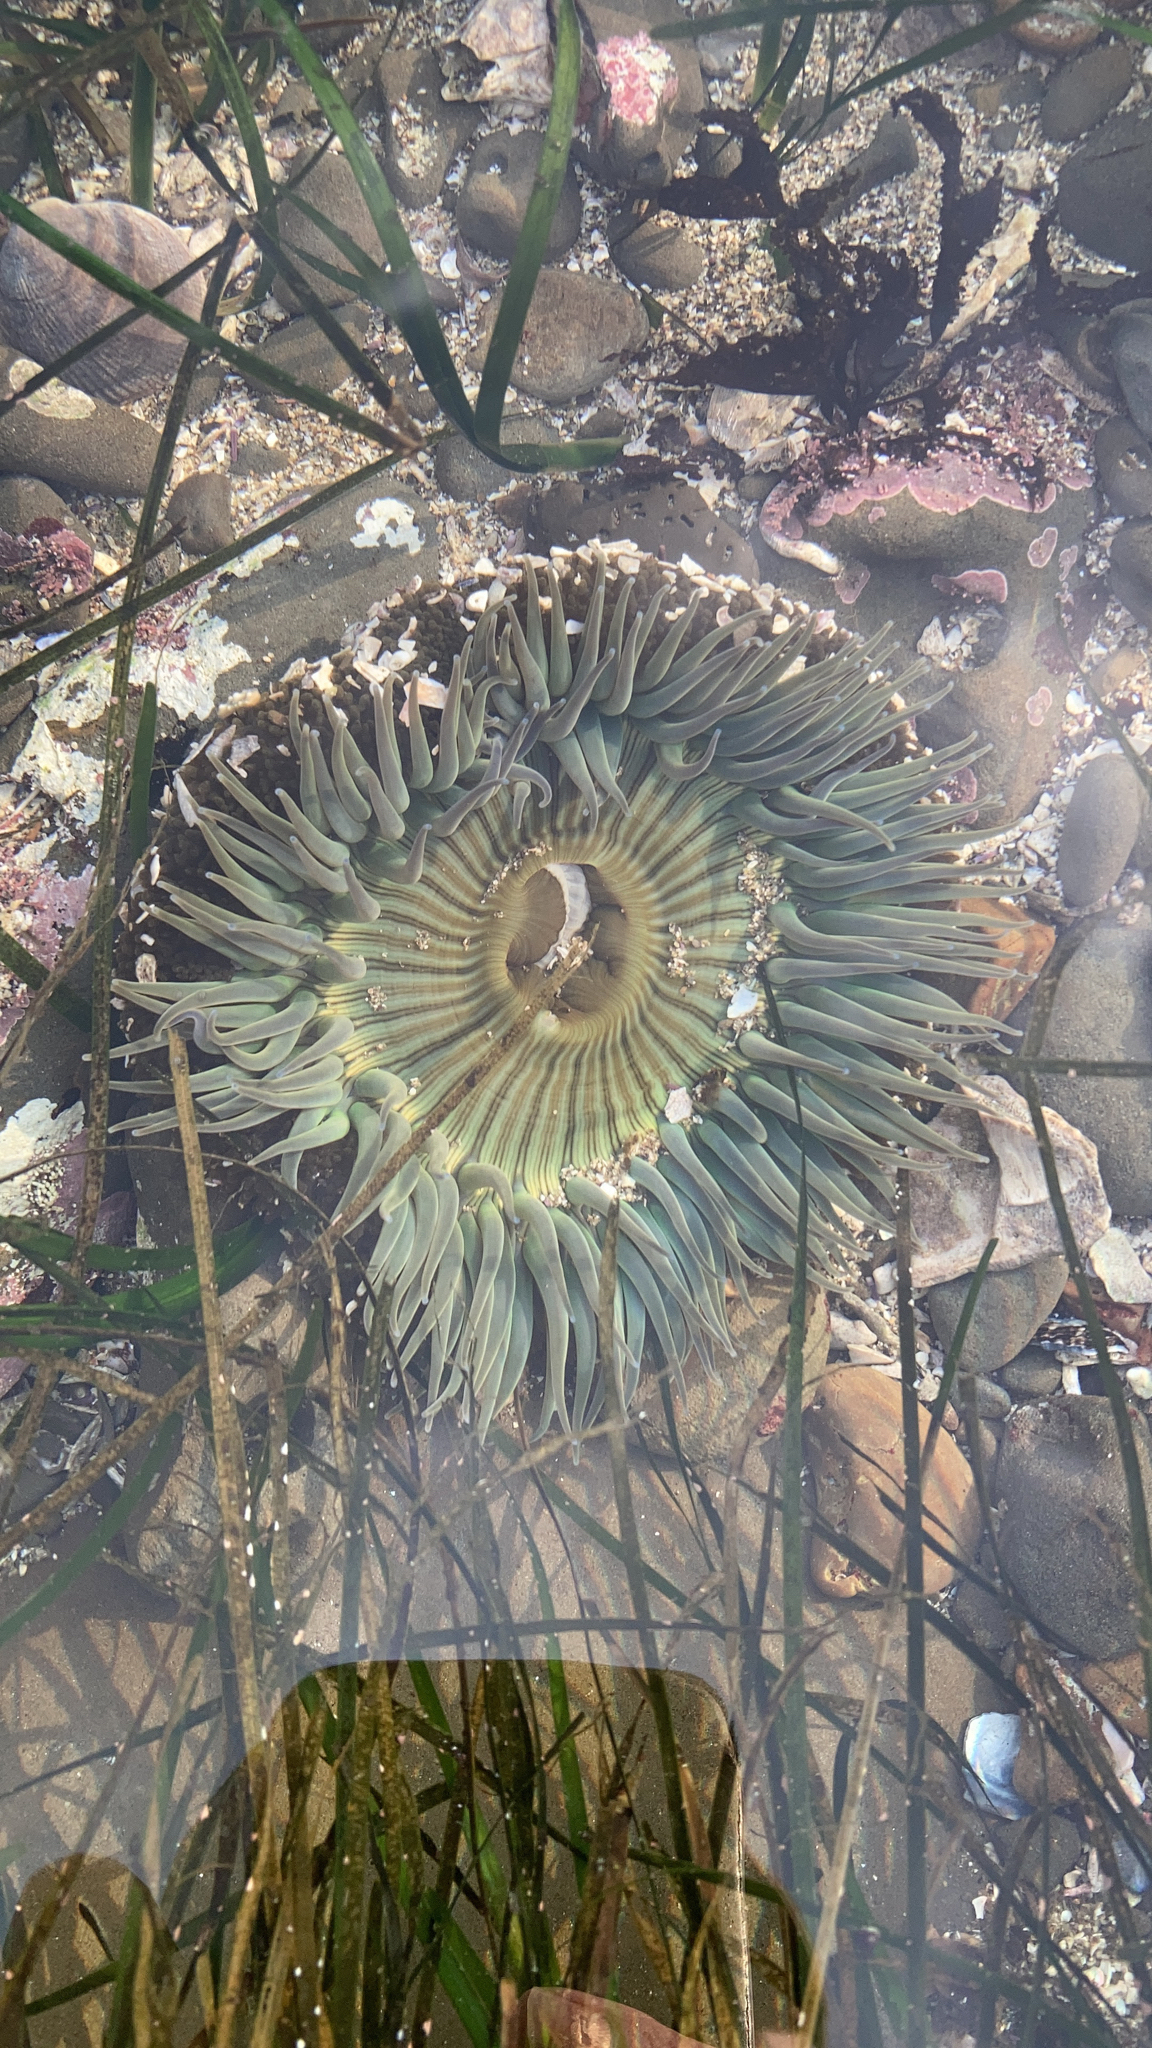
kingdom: Animalia
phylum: Cnidaria
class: Anthozoa
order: Actiniaria
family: Actiniidae
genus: Anthopleura
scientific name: Anthopleura sola
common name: Sun anemone
